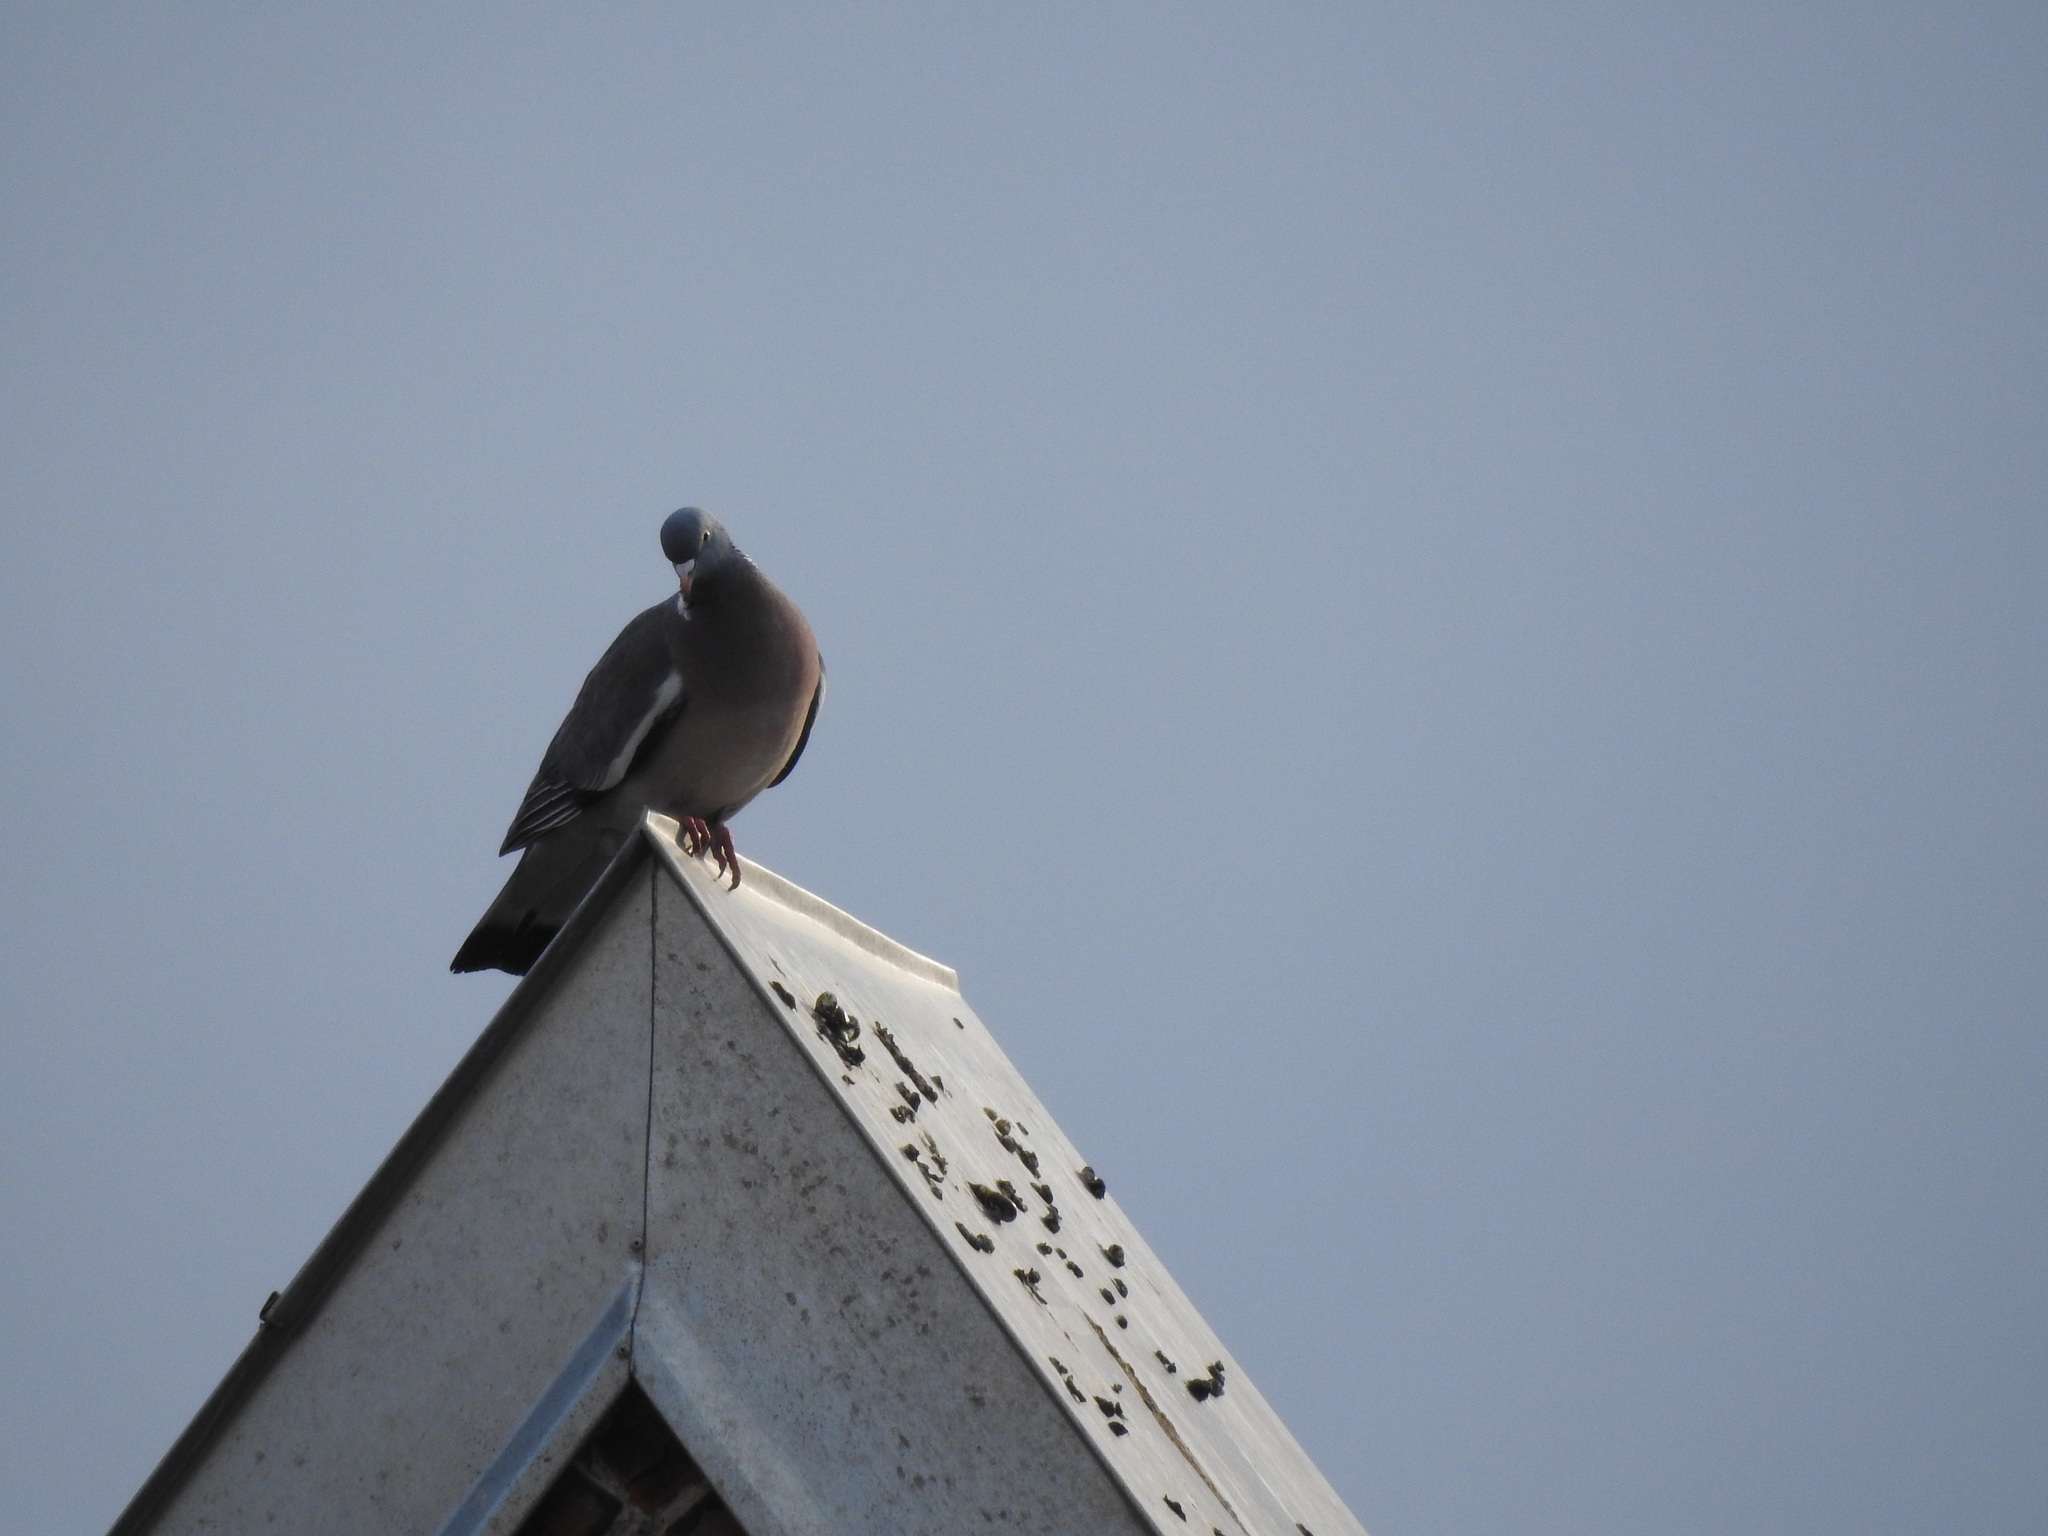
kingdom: Animalia
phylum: Chordata
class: Aves
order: Columbiformes
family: Columbidae
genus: Columba
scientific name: Columba palumbus
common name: Common wood pigeon
